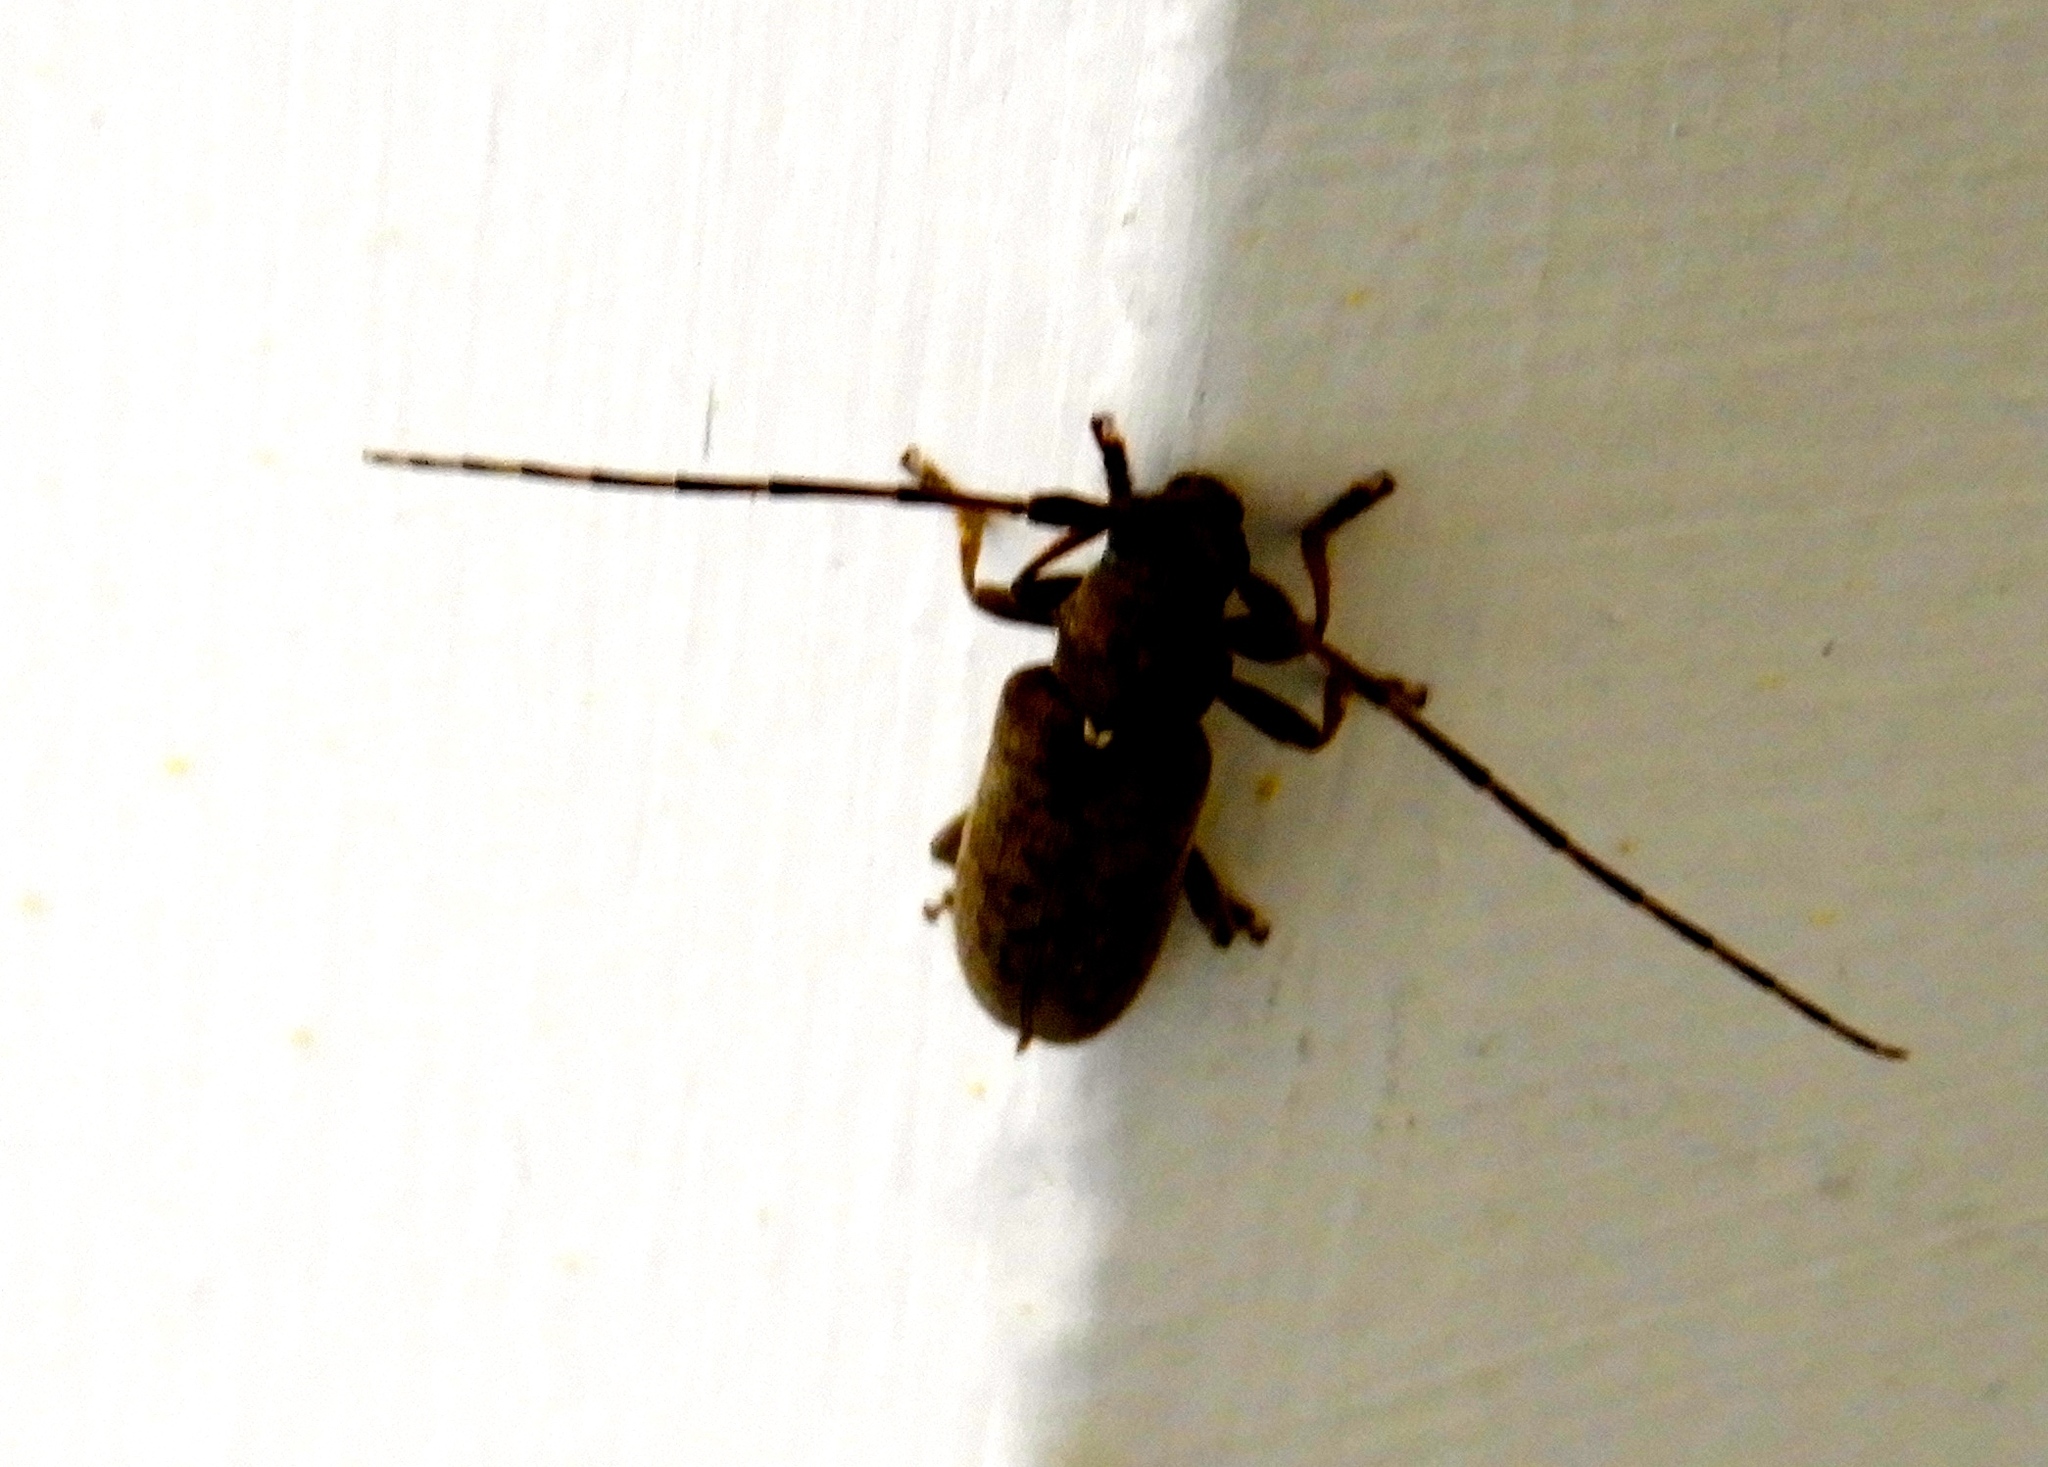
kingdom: Animalia
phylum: Arthropoda
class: Insecta
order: Coleoptera
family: Cerambycidae
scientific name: Cerambycidae
